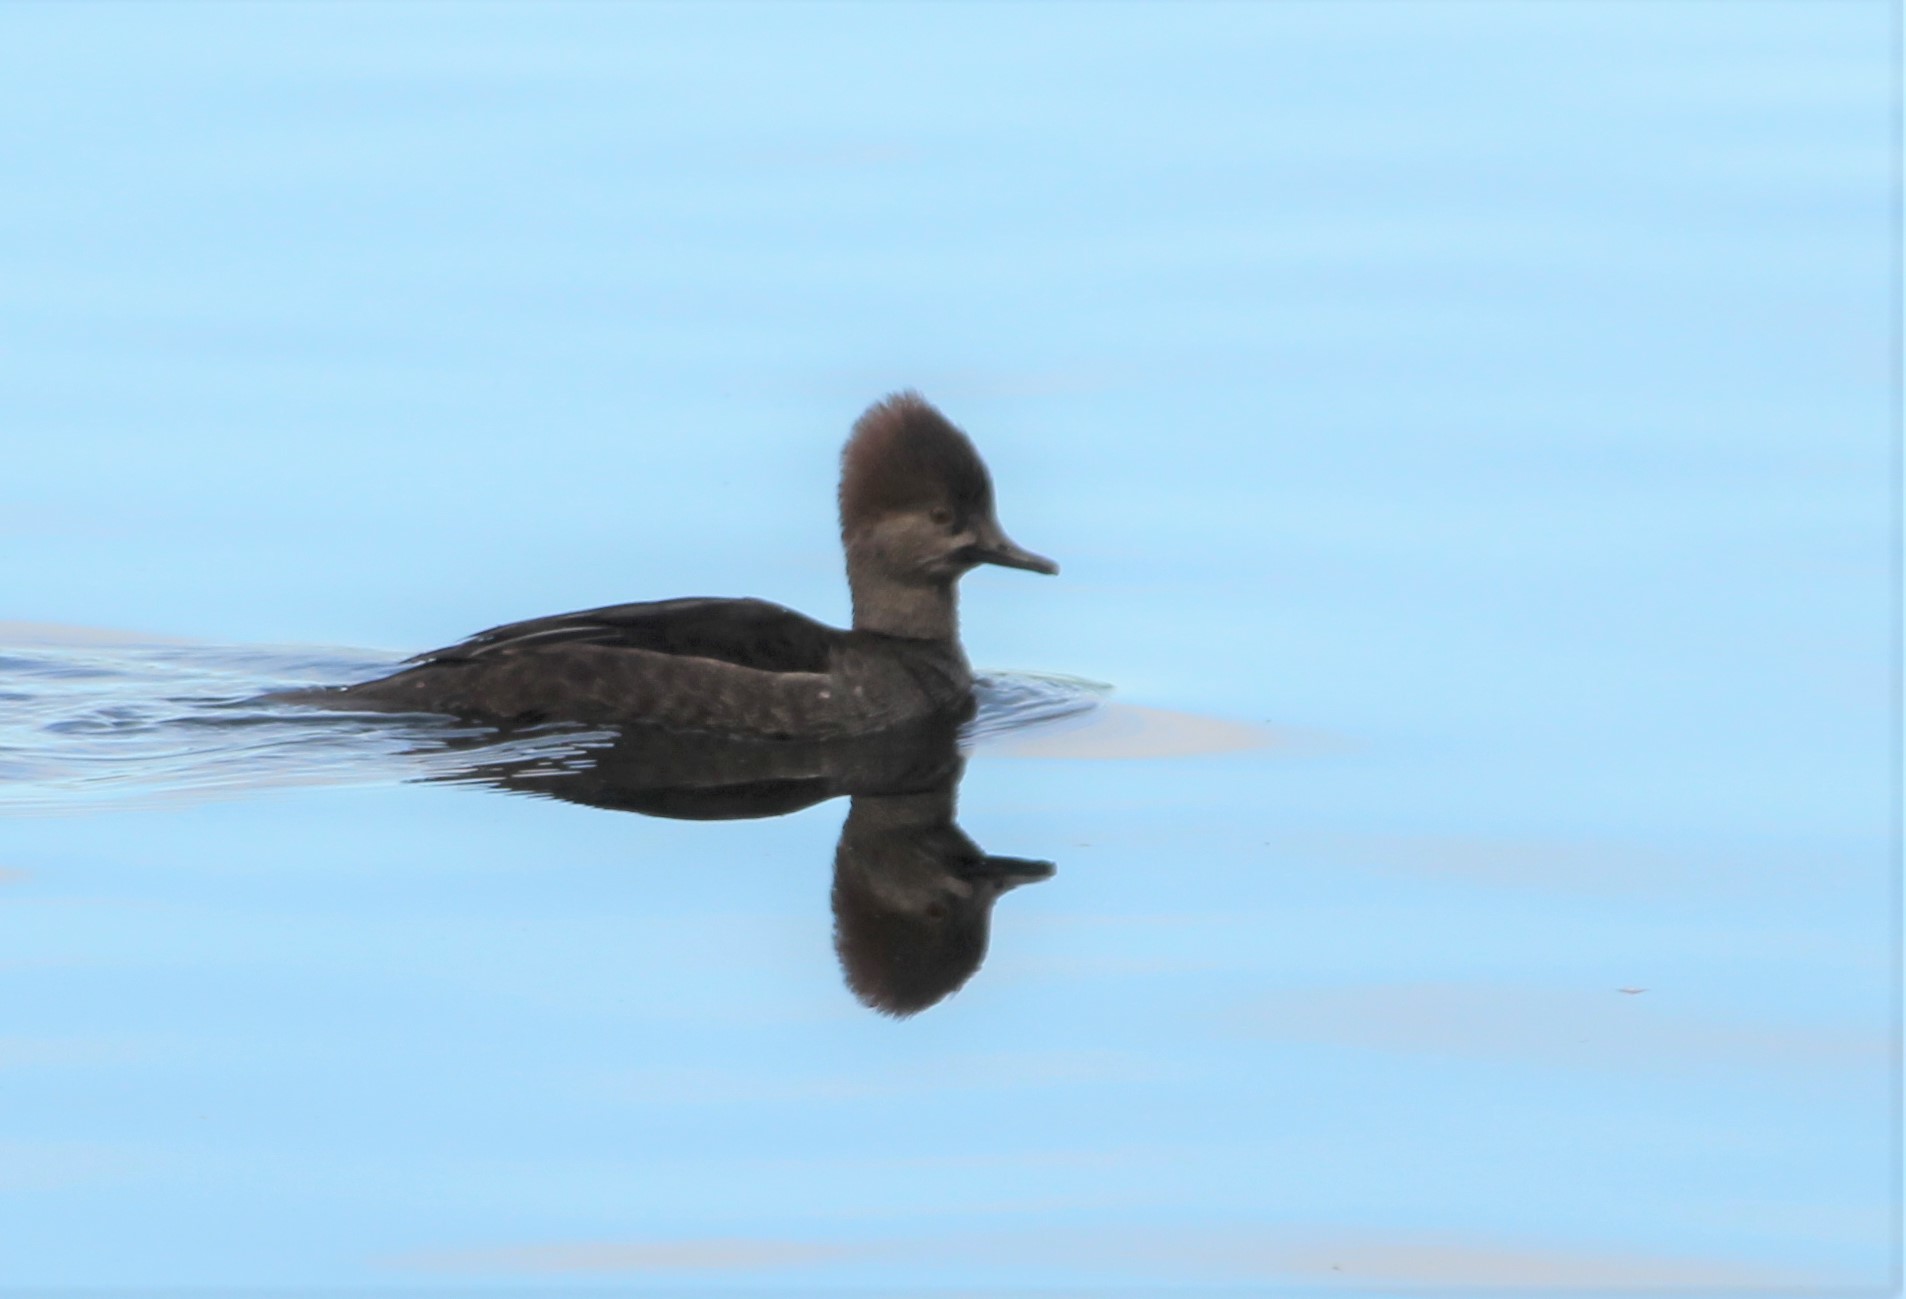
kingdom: Animalia
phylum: Chordata
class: Aves
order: Anseriformes
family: Anatidae
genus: Lophodytes
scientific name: Lophodytes cucullatus
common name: Hooded merganser
